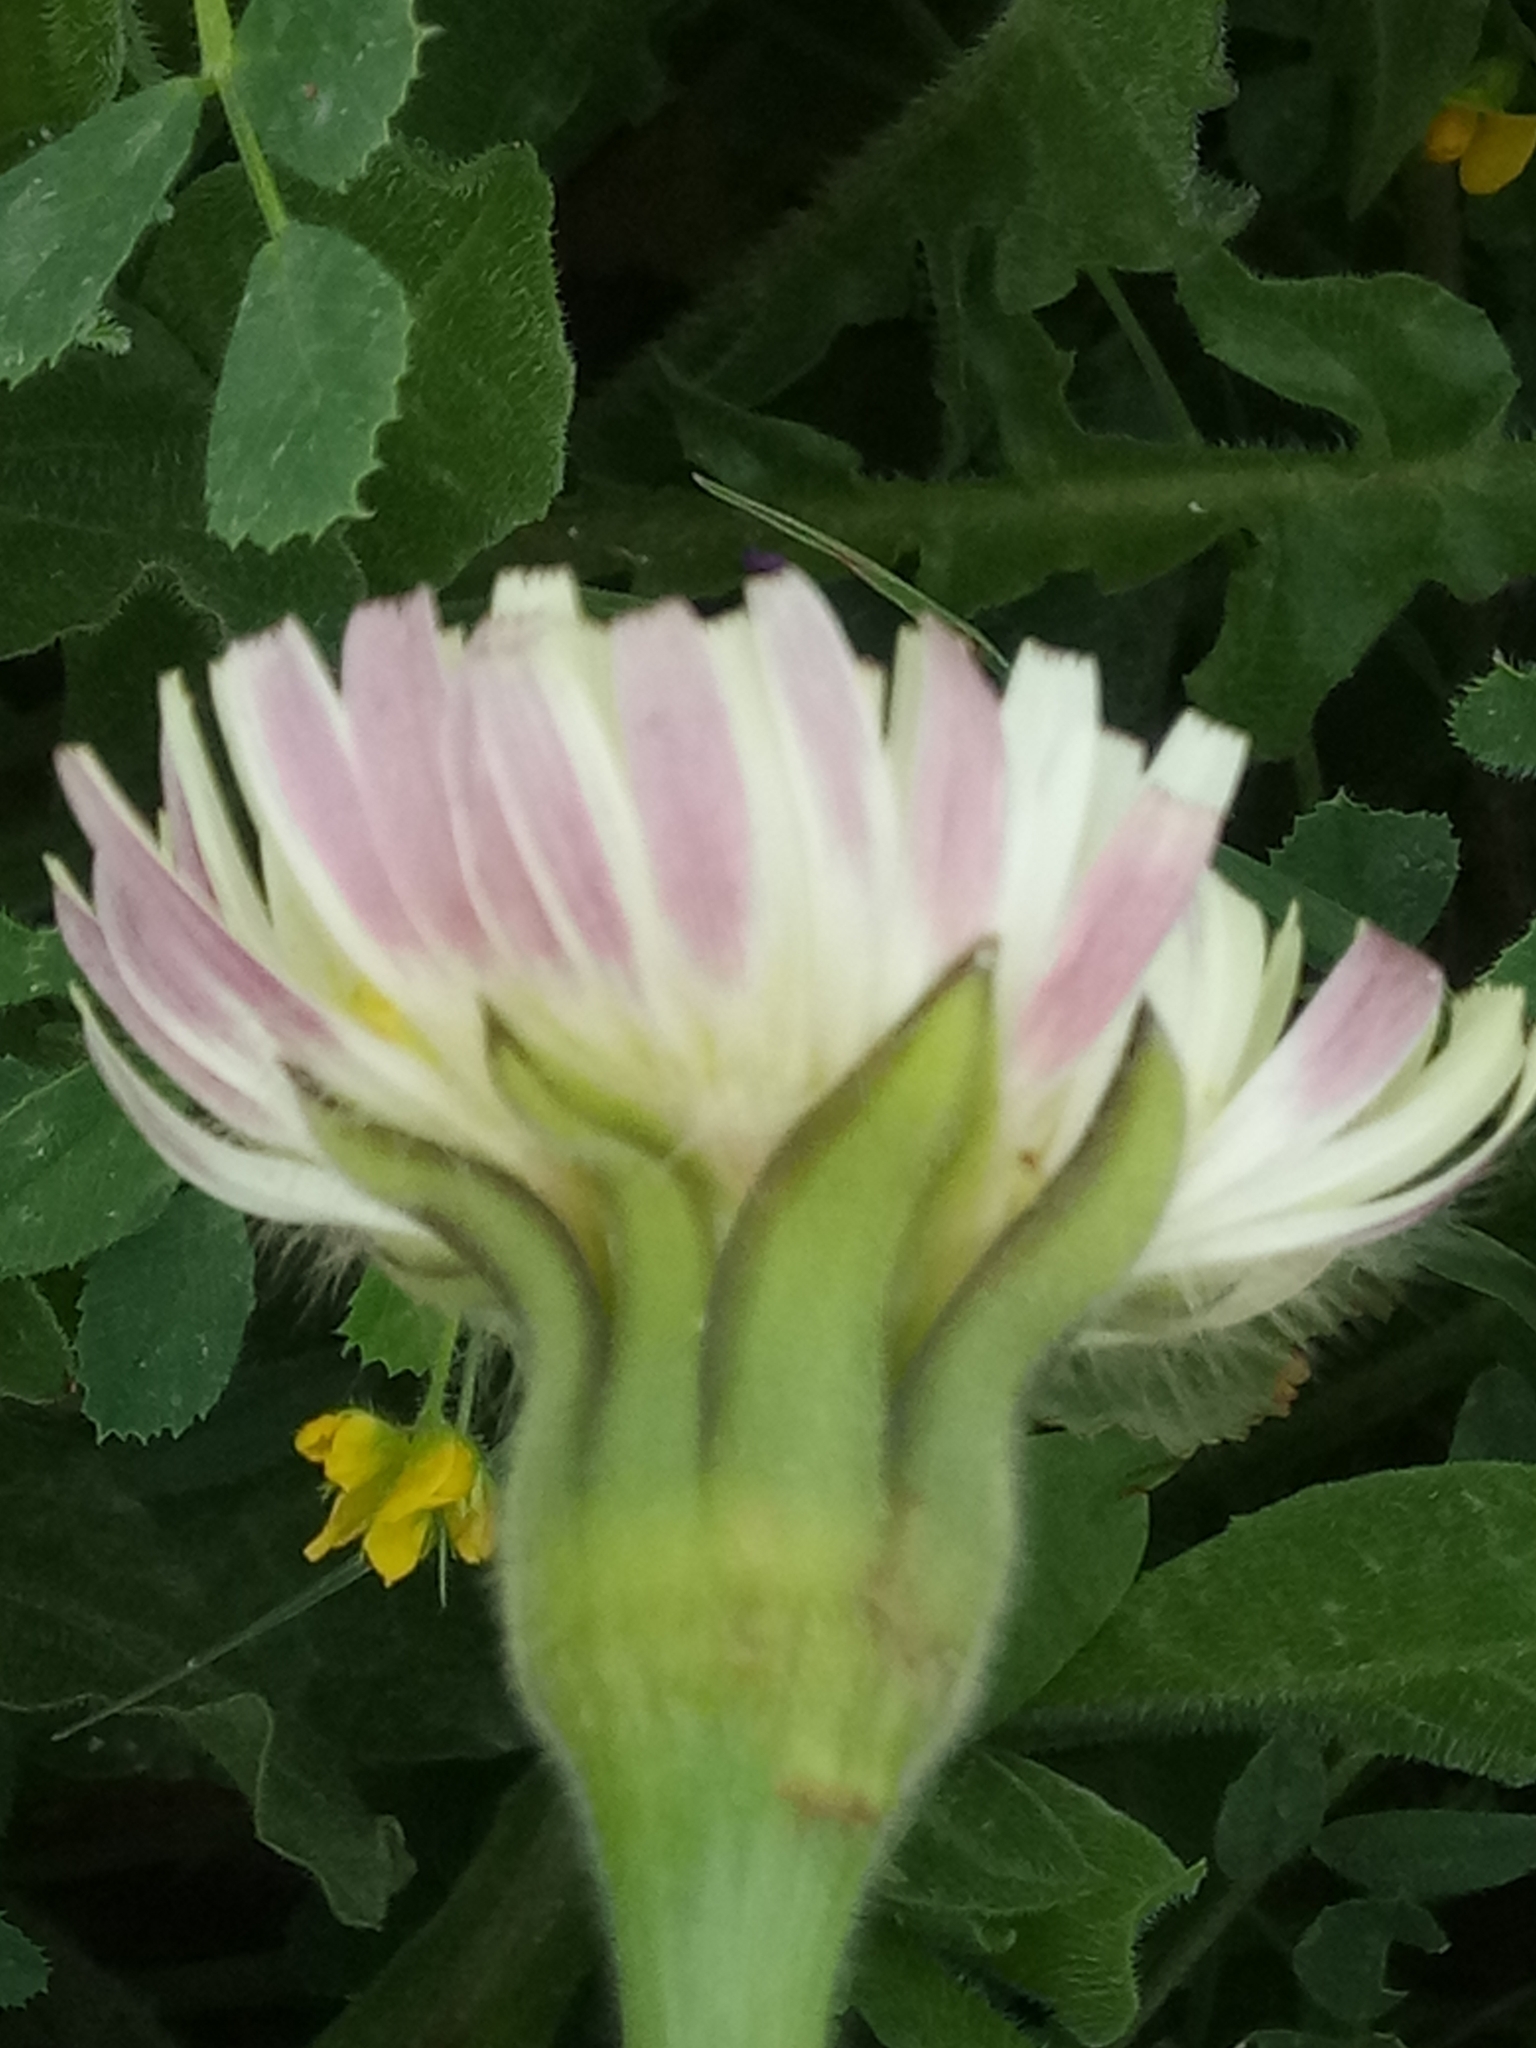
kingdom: Plantae
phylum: Tracheophyta
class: Magnoliopsida
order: Asterales
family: Asteraceae
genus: Urospermum
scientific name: Urospermum dalechampii
